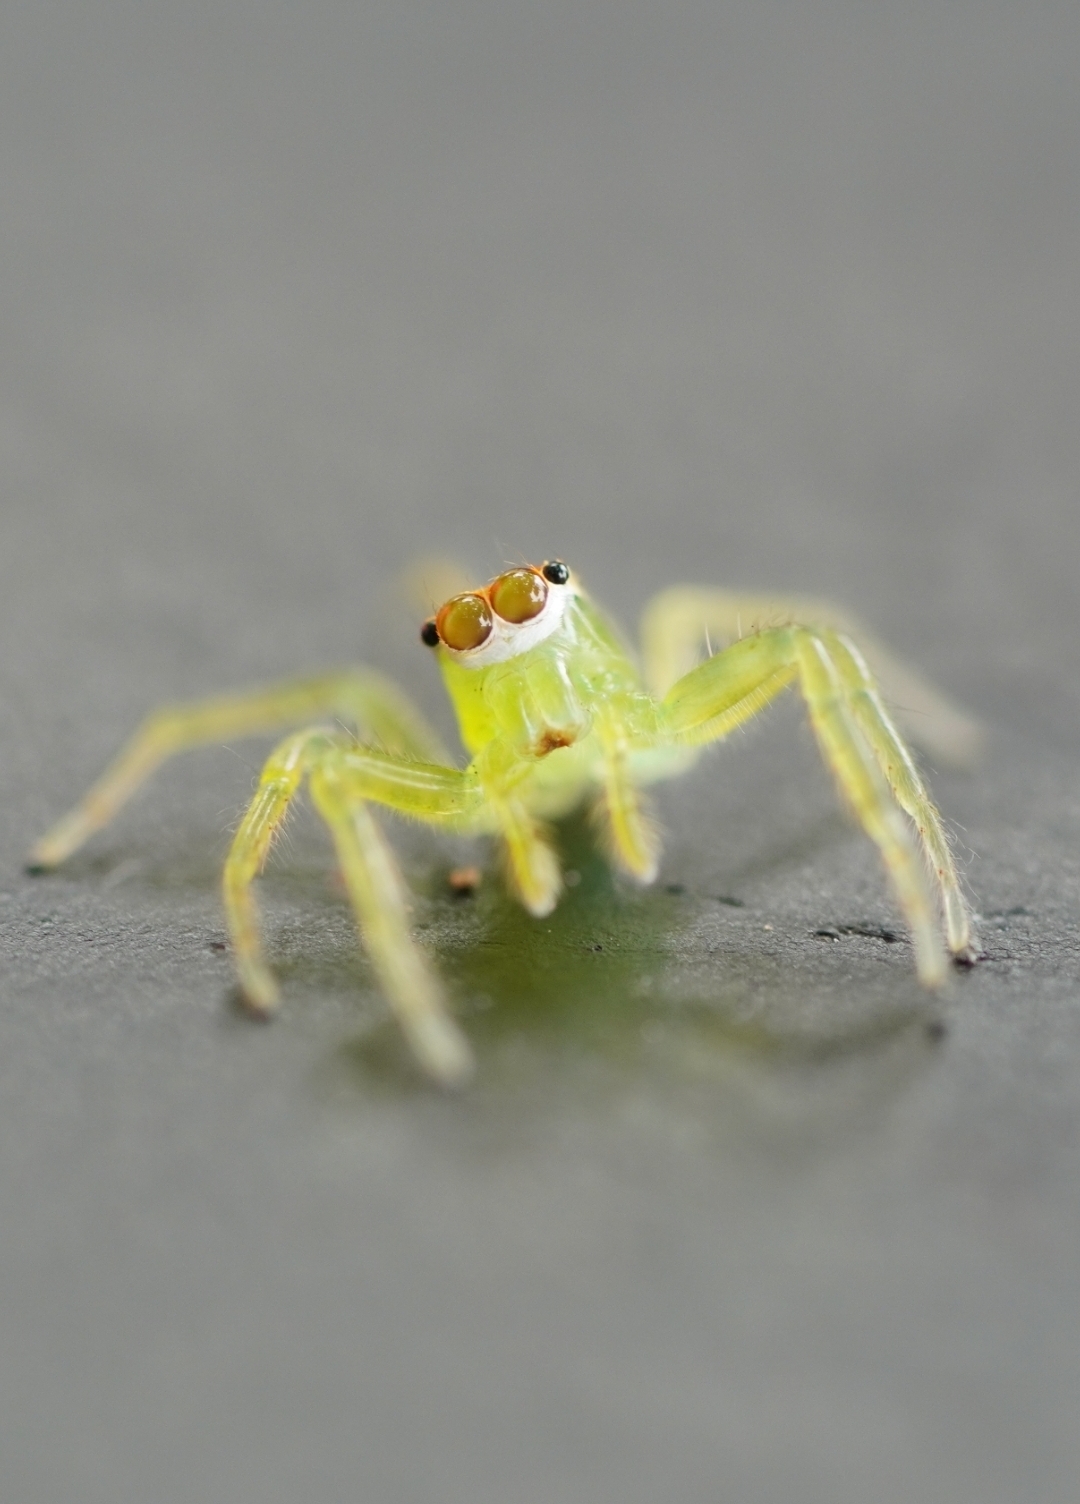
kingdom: Animalia
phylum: Arthropoda
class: Arachnida
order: Araneae
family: Salticidae
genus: Epeus
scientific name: Epeus flavobilineatus
